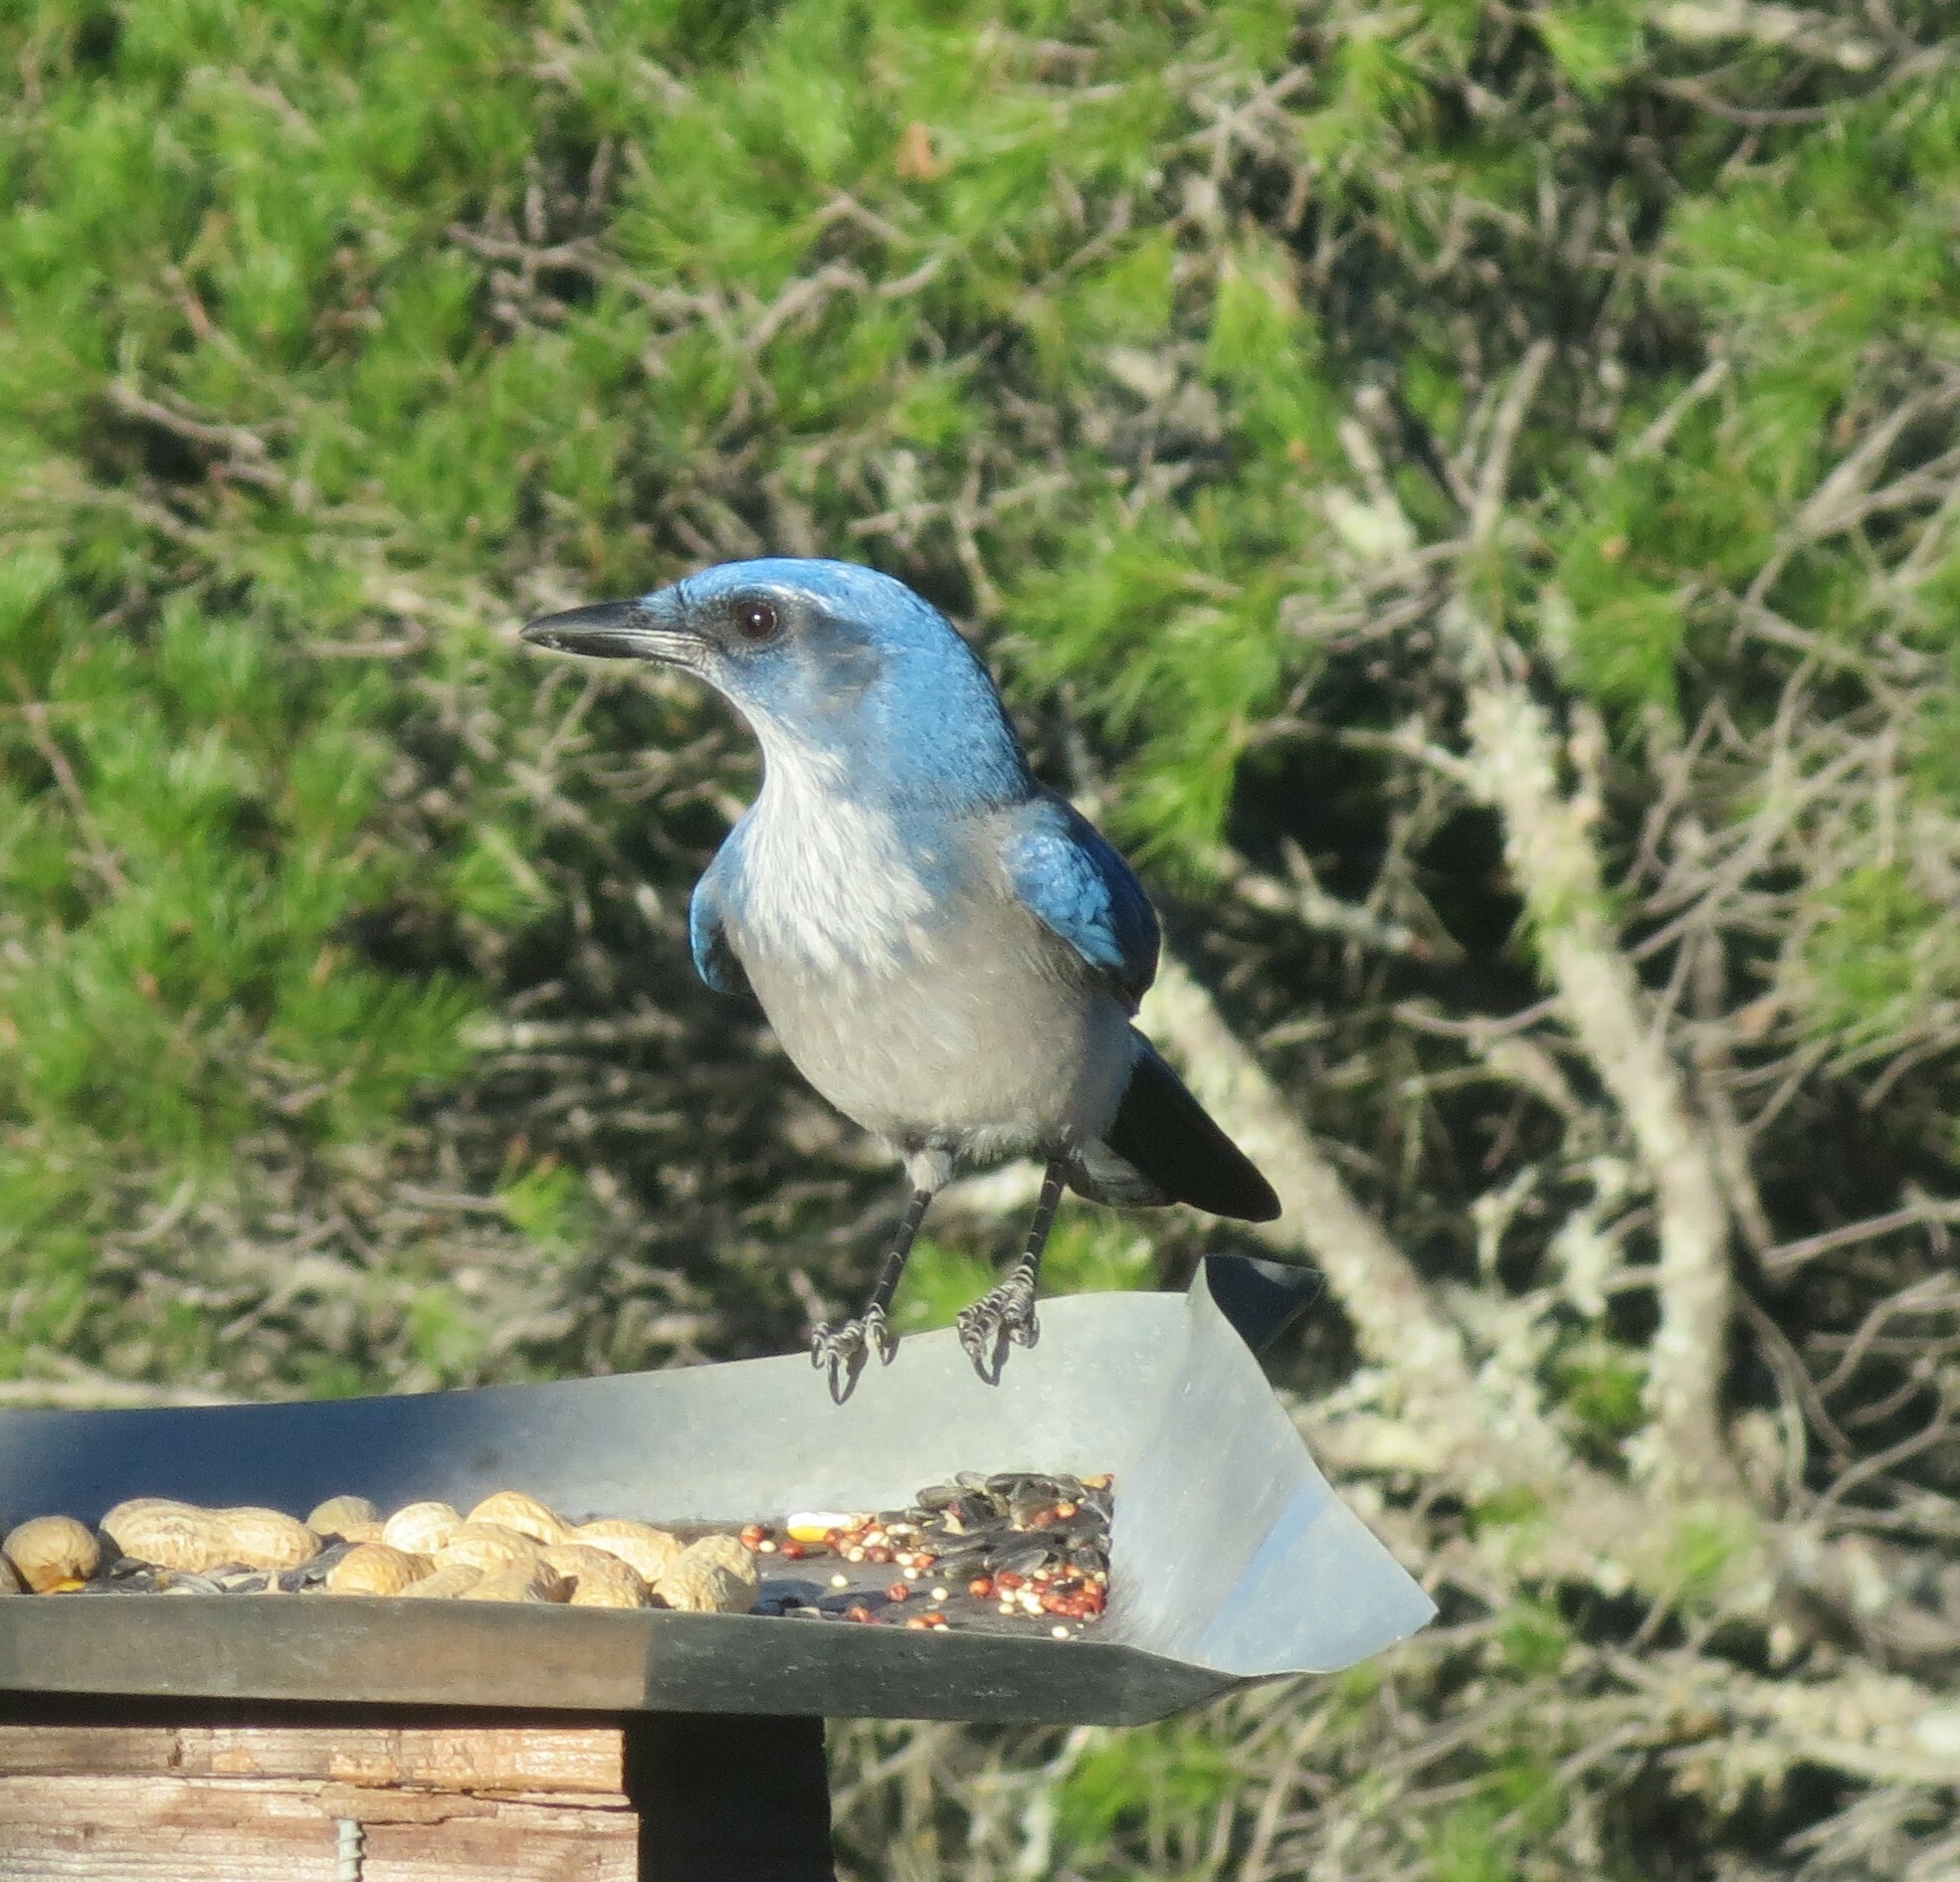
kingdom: Animalia
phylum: Chordata
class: Aves
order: Passeriformes
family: Corvidae
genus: Aphelocoma
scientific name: Aphelocoma woodhouseii
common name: Woodhouse's scrub-jay
